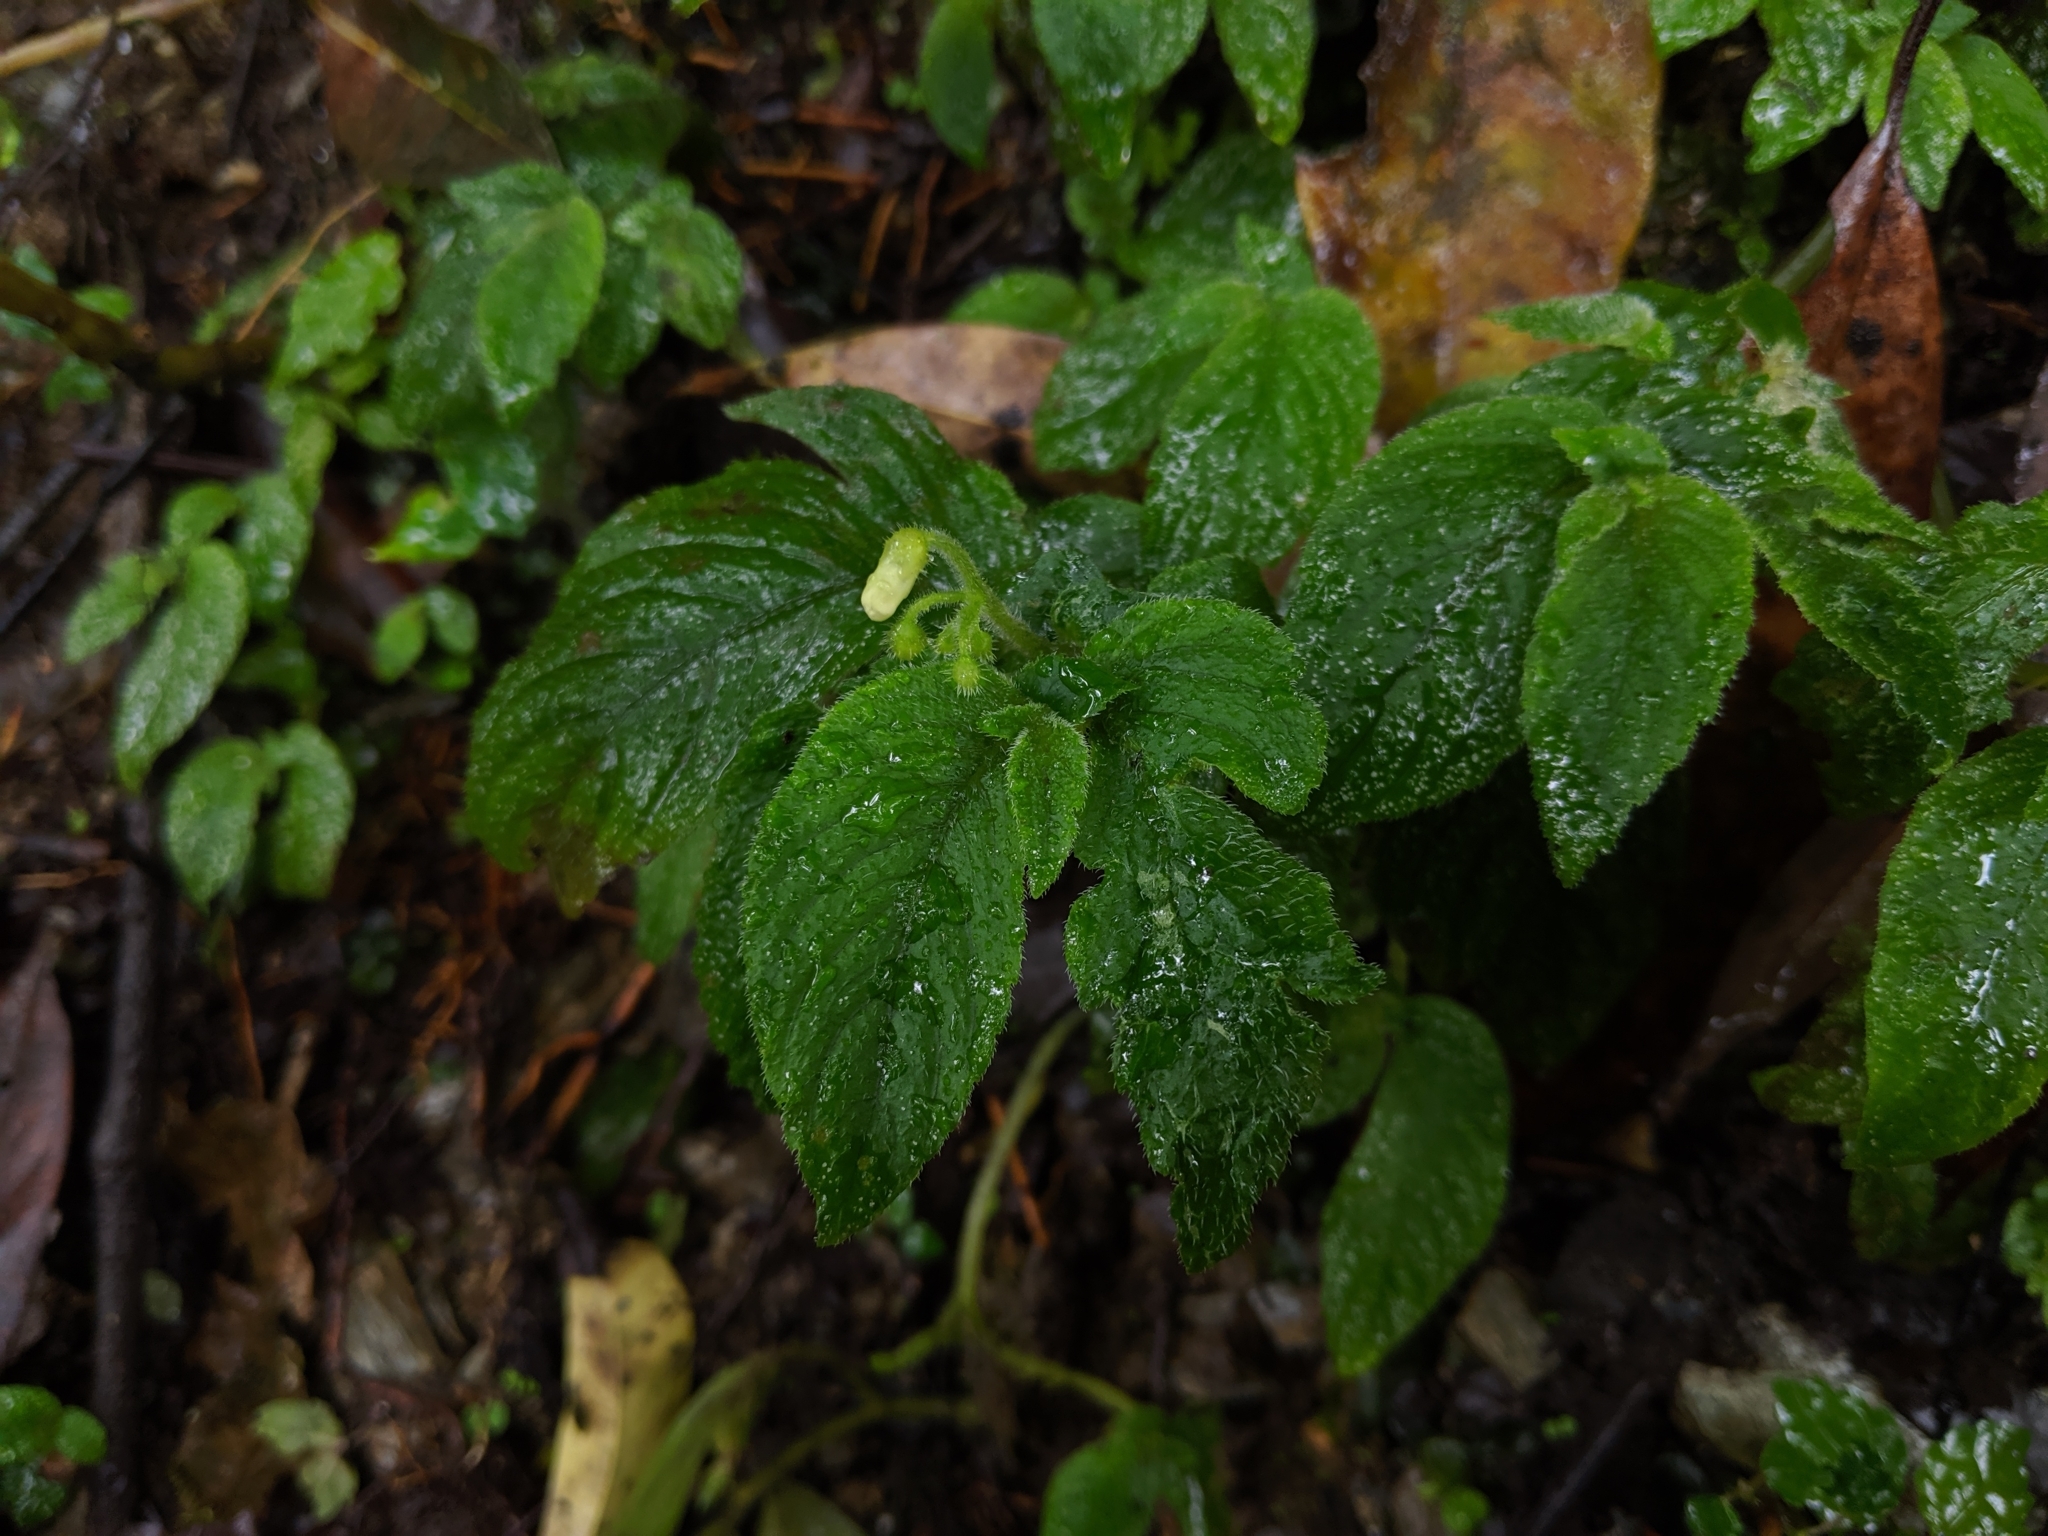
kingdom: Plantae
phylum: Tracheophyta
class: Magnoliopsida
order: Lamiales
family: Gesneriaceae
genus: Whytockia
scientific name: Whytockia sasakii
